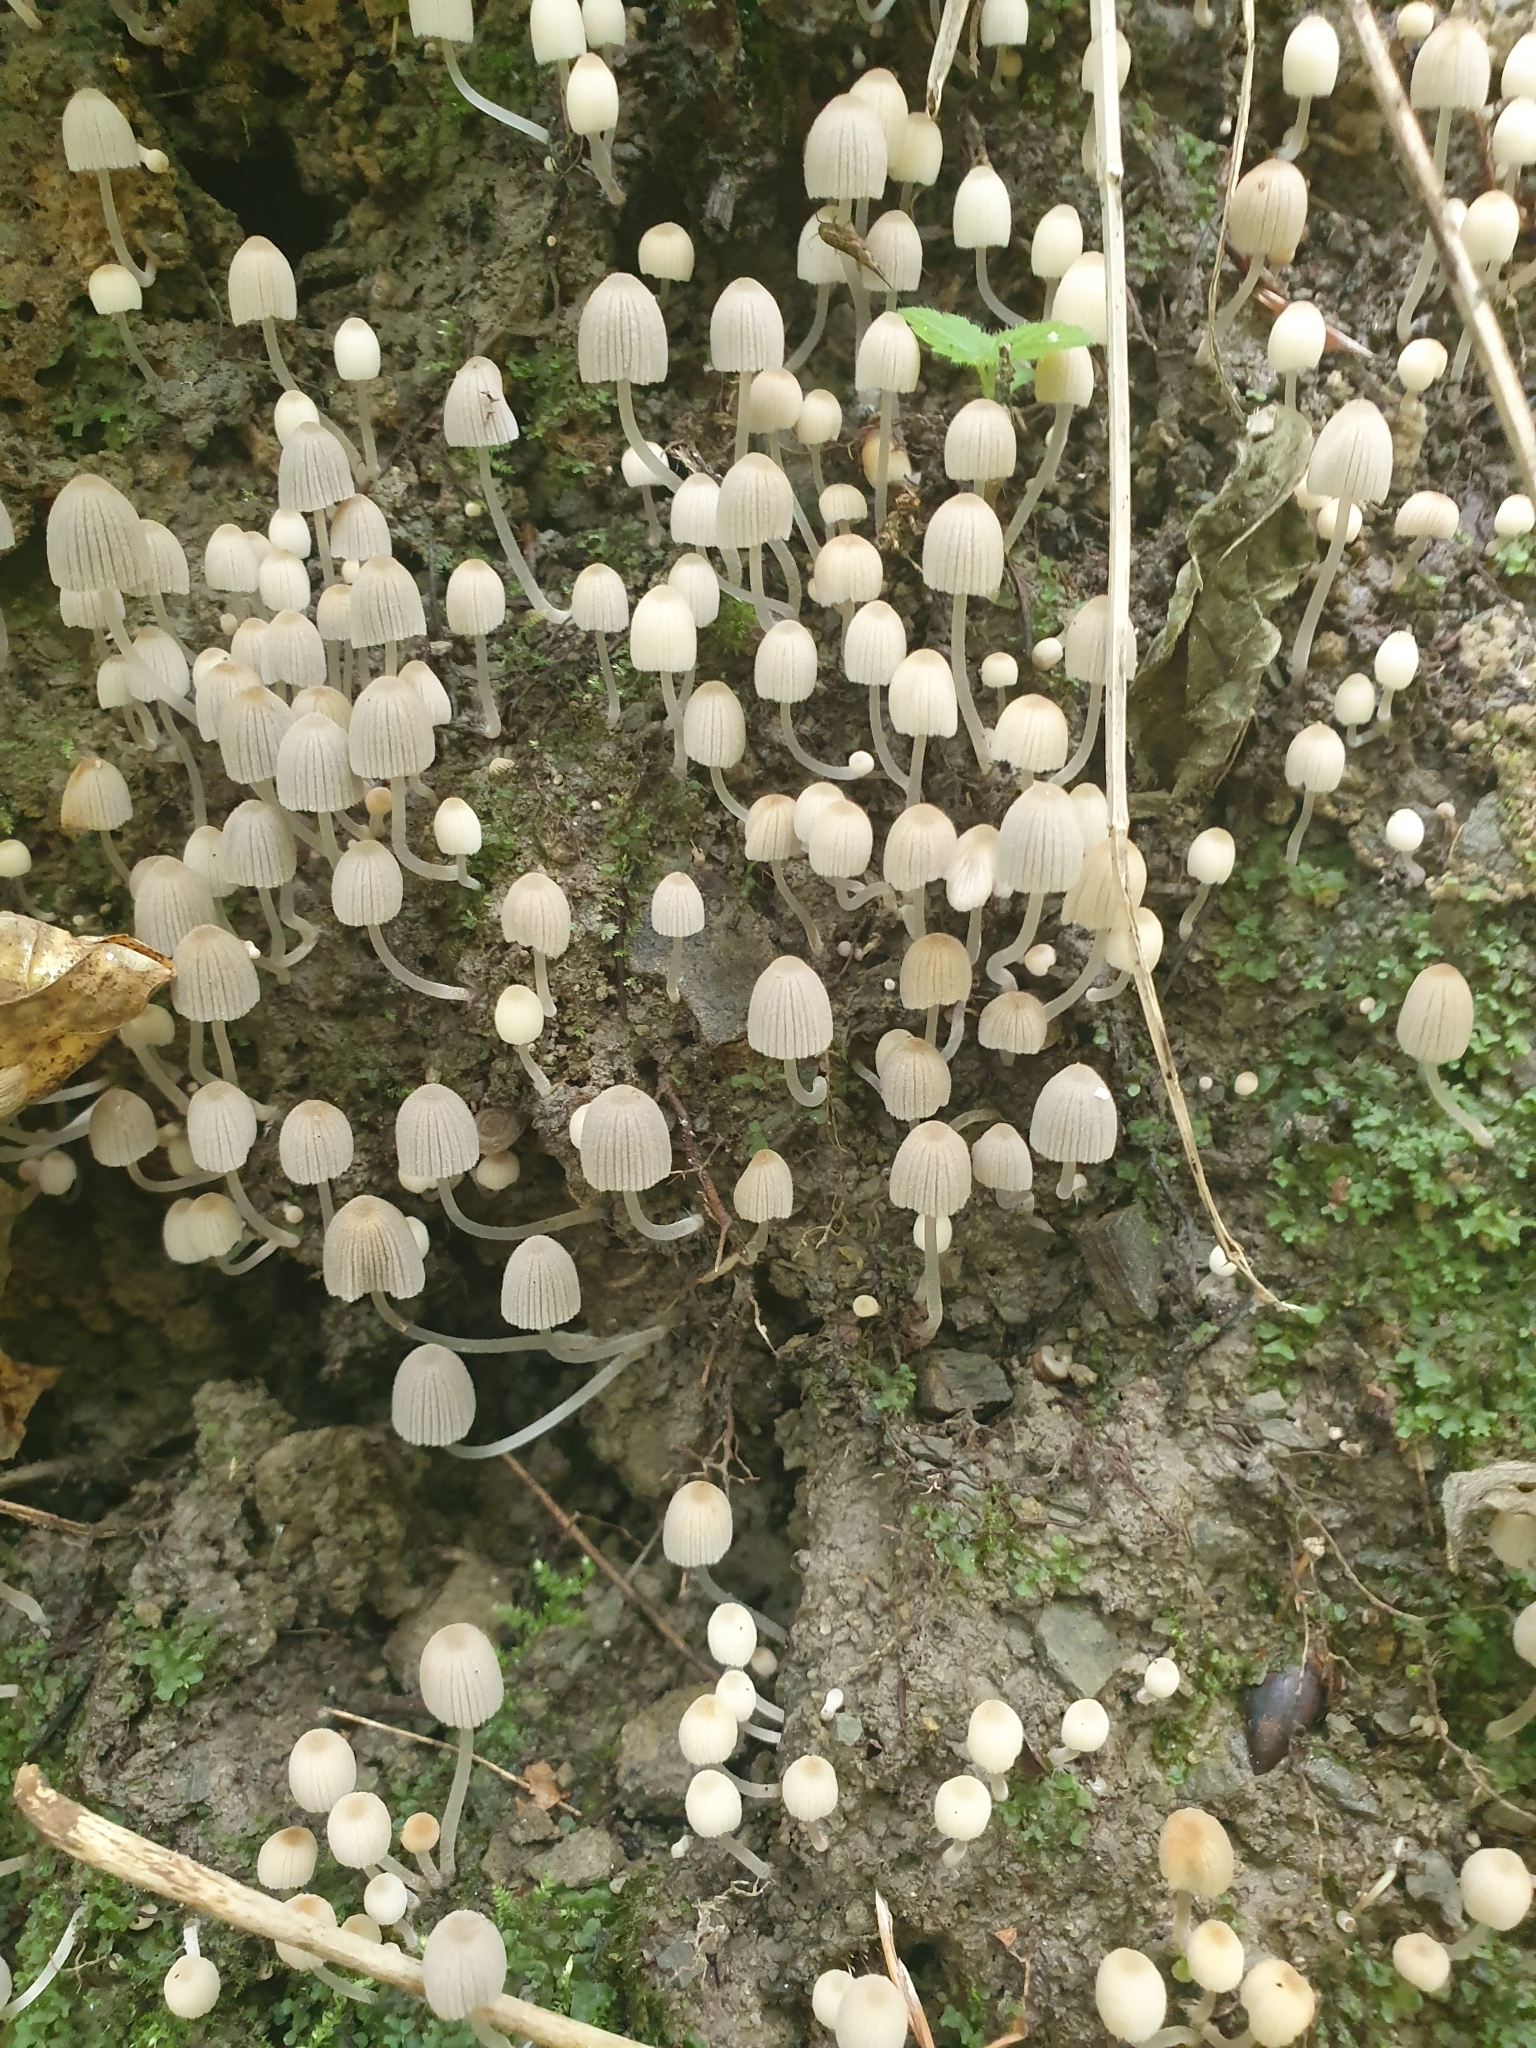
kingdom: Fungi
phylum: Basidiomycota
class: Agaricomycetes
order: Agaricales
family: Psathyrellaceae
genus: Coprinellus
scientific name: Coprinellus disseminatus
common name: Fairies' bonnets
